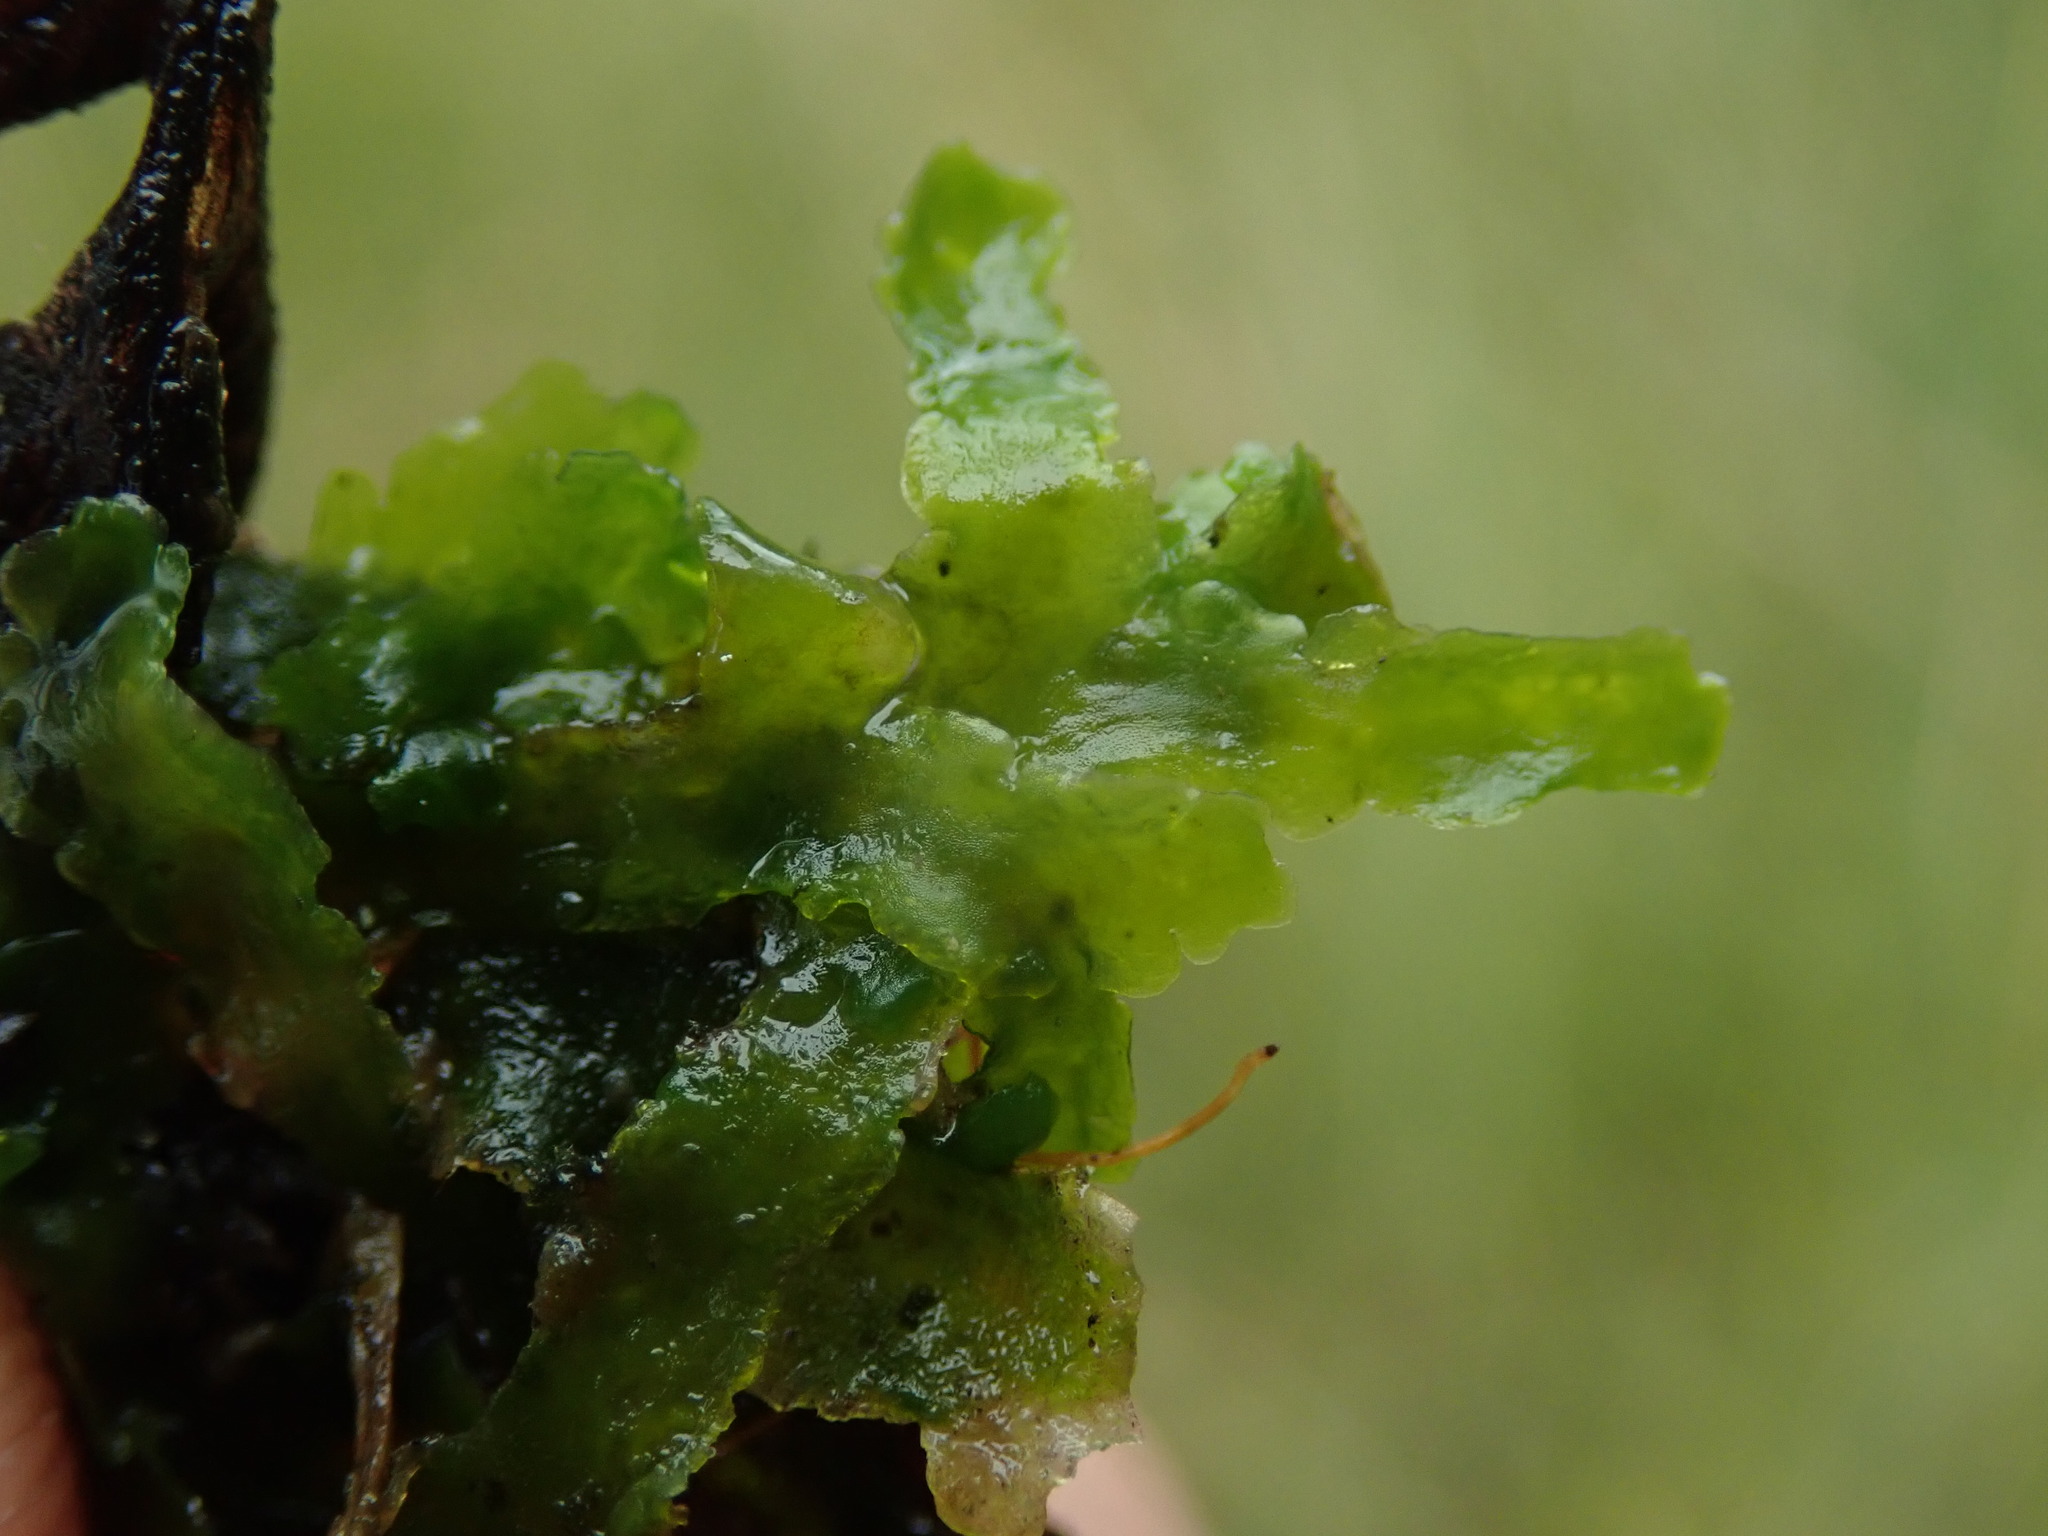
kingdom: Plantae
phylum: Marchantiophyta
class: Jungermanniopsida
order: Metzgeriales
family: Aneuraceae
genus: Aneura
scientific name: Aneura pinguis
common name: Common greasewort
